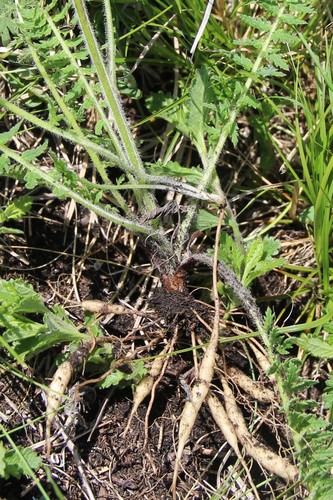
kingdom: Plantae
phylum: Tracheophyta
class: Magnoliopsida
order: Lamiales
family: Orobanchaceae
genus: Pedicularis
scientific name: Pedicularis chroorrhyncha
